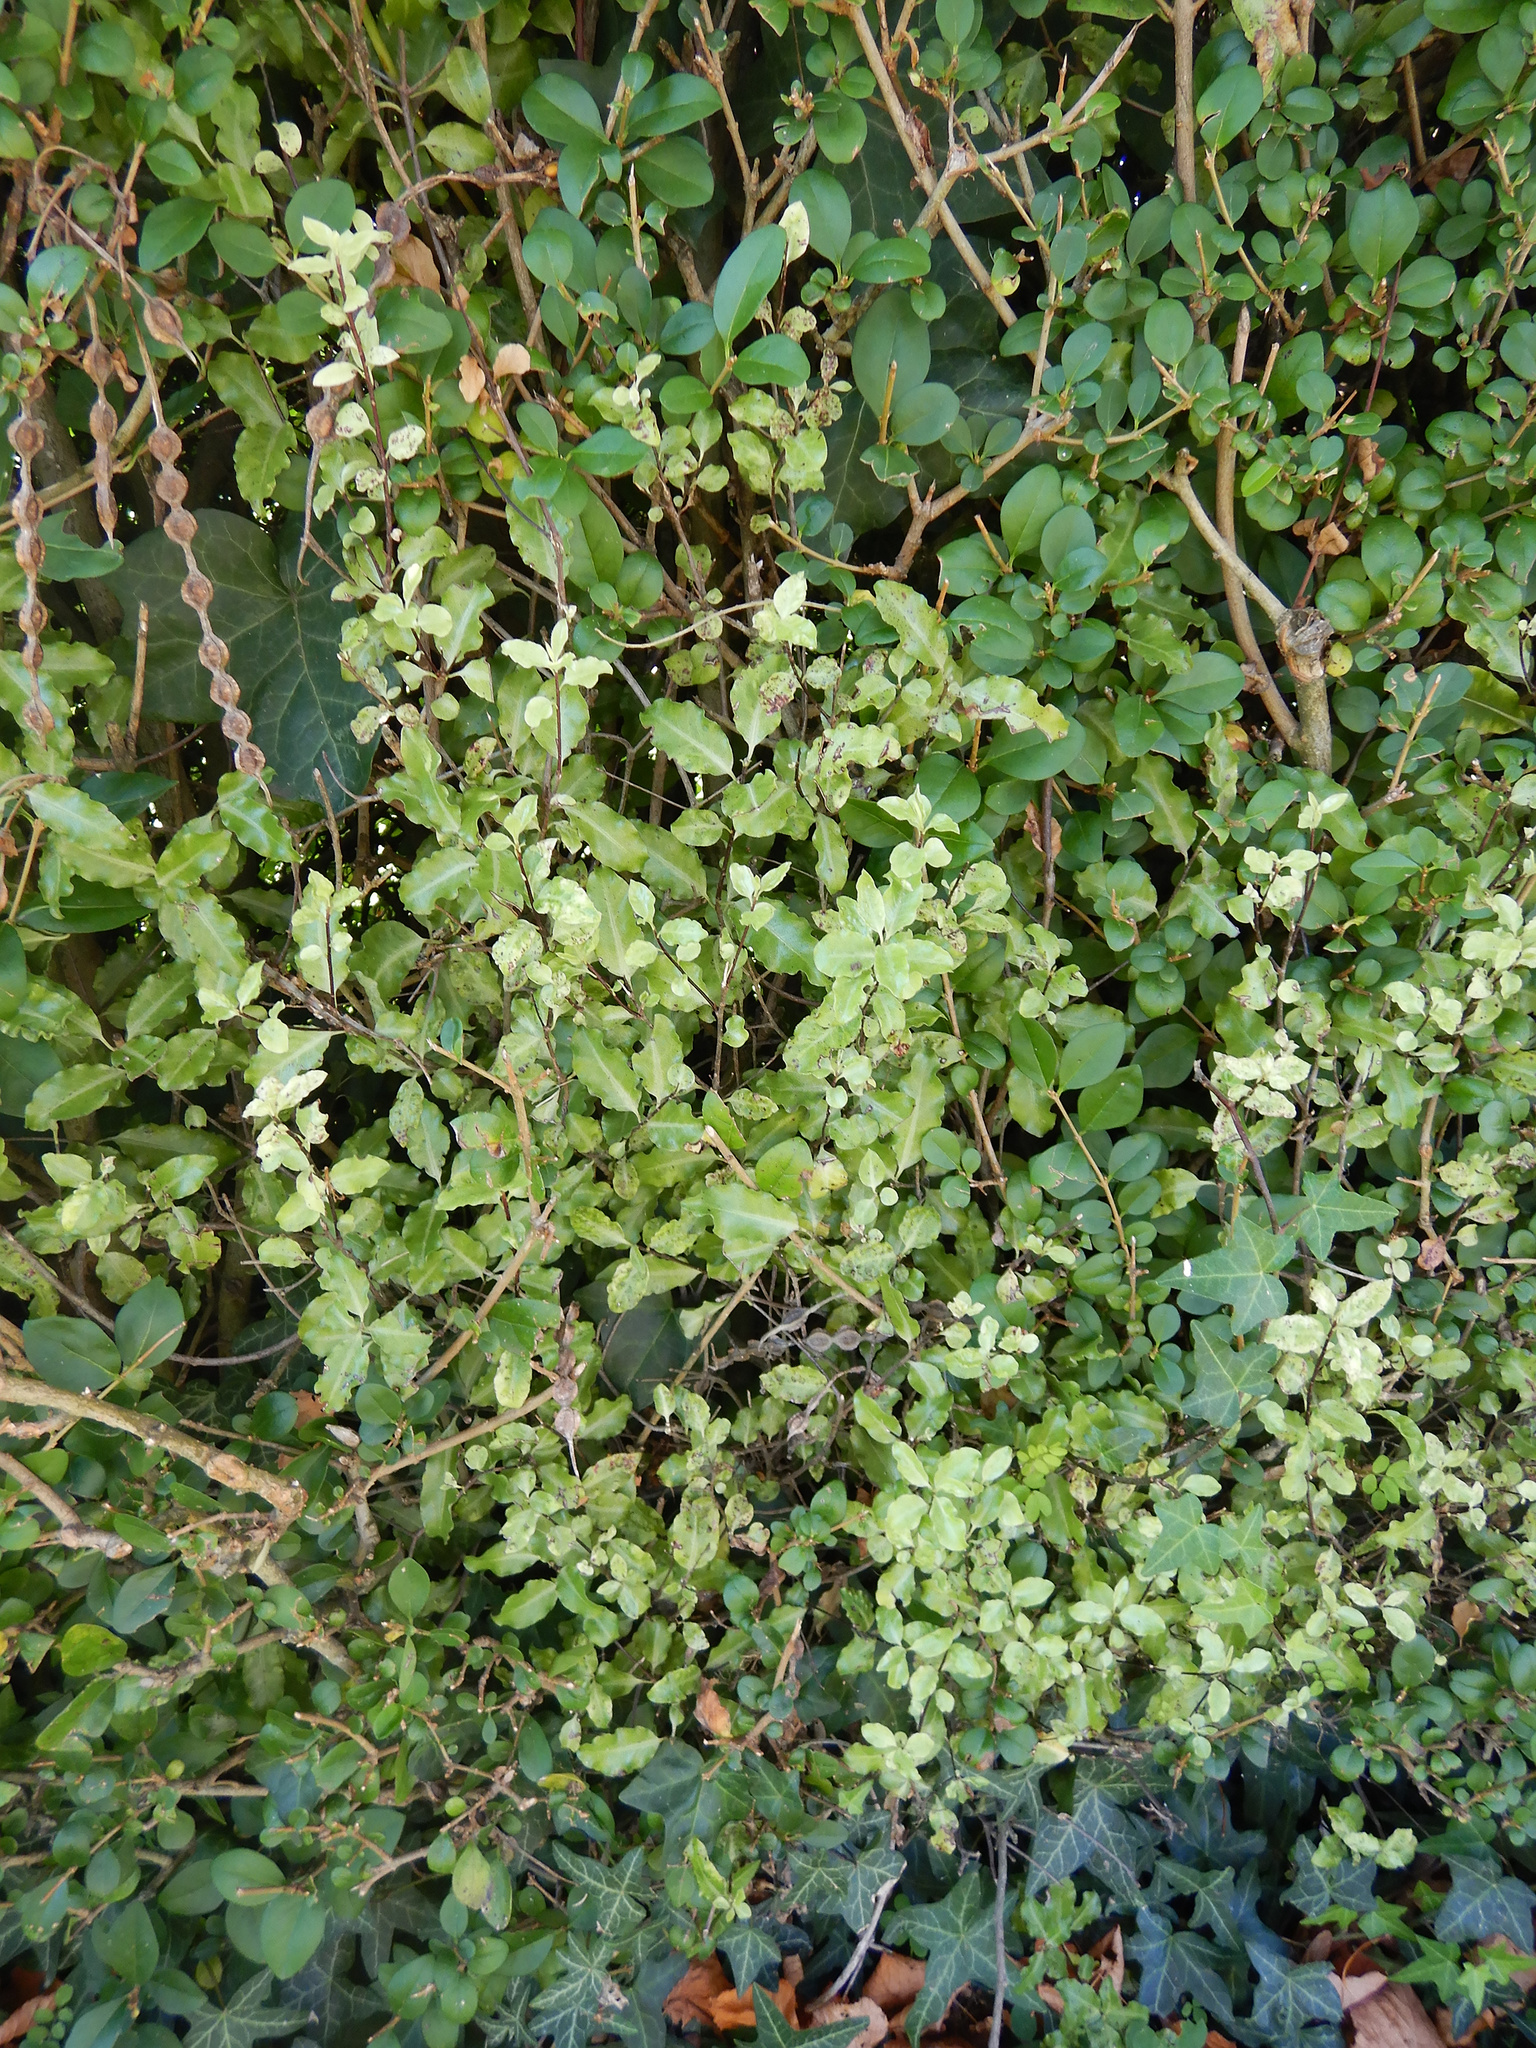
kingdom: Plantae
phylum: Tracheophyta
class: Magnoliopsida
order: Apiales
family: Pittosporaceae
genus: Pittosporum
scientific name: Pittosporum tenuifolium
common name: Kohuhu
